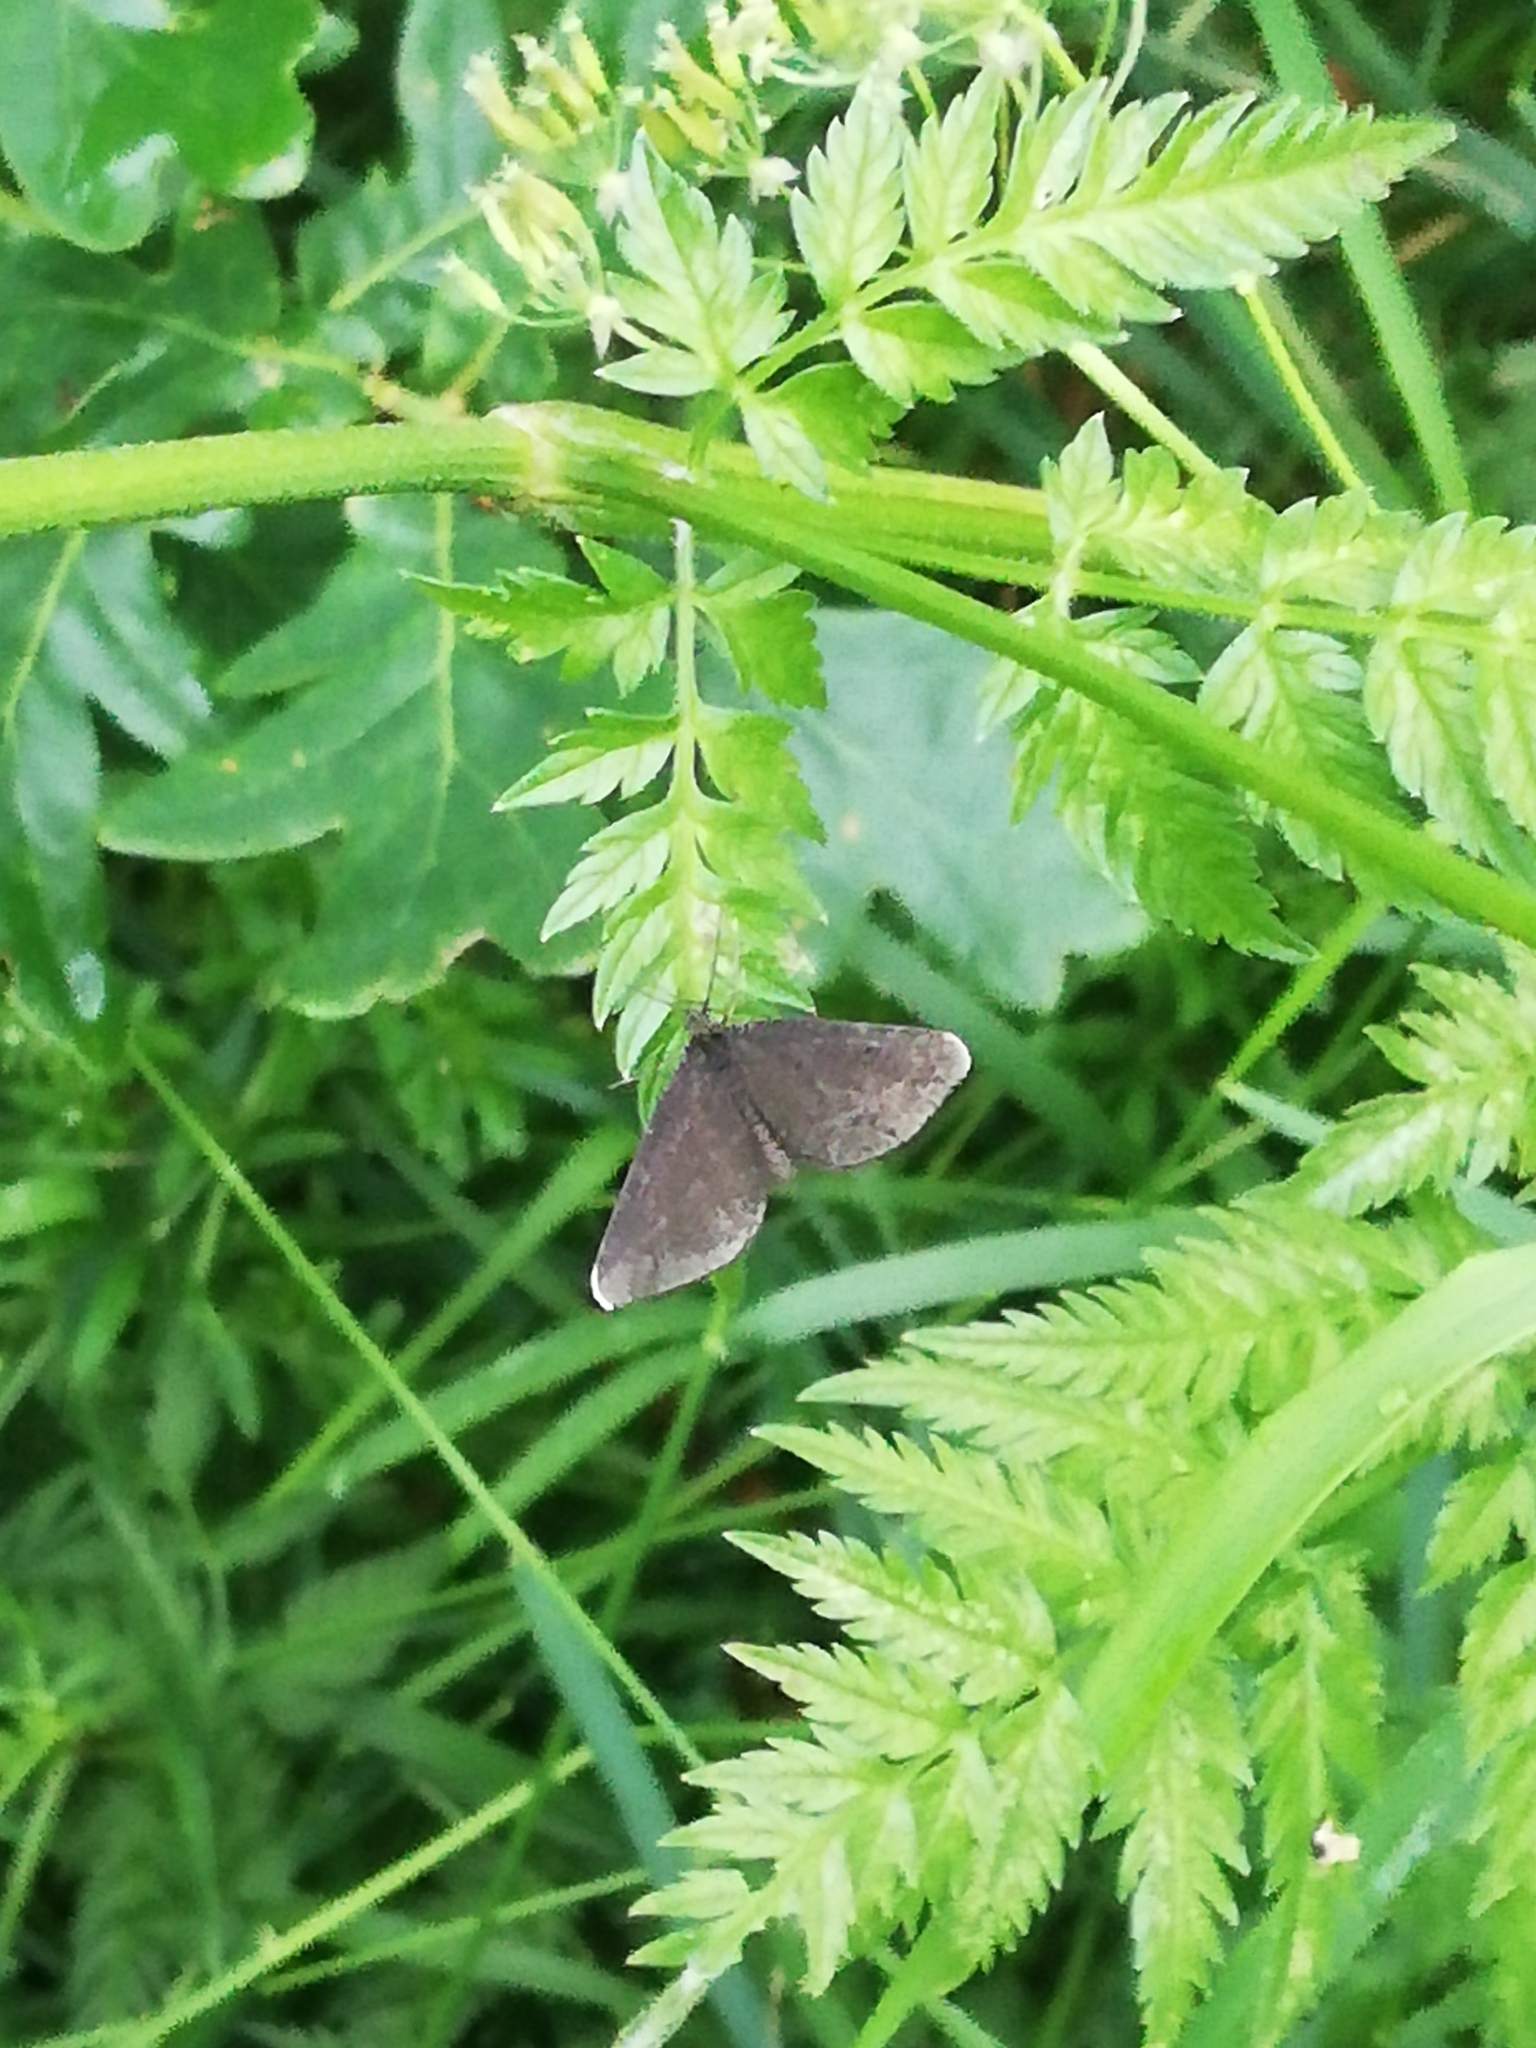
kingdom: Animalia
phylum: Arthropoda
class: Insecta
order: Lepidoptera
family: Geometridae
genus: Odezia
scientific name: Odezia atrata
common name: Chimney sweeper
